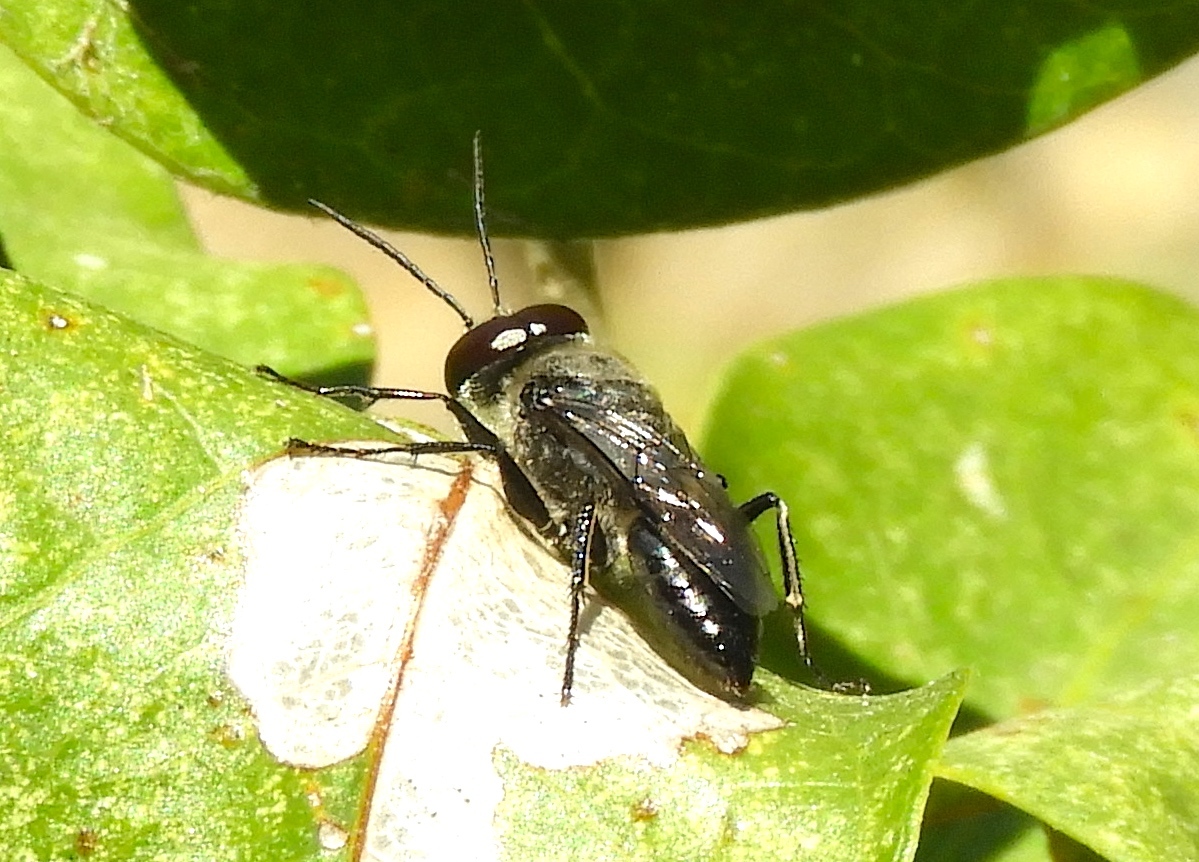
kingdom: Animalia
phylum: Arthropoda
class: Insecta
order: Hymenoptera
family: Crabronidae
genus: Astata
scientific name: Astata
